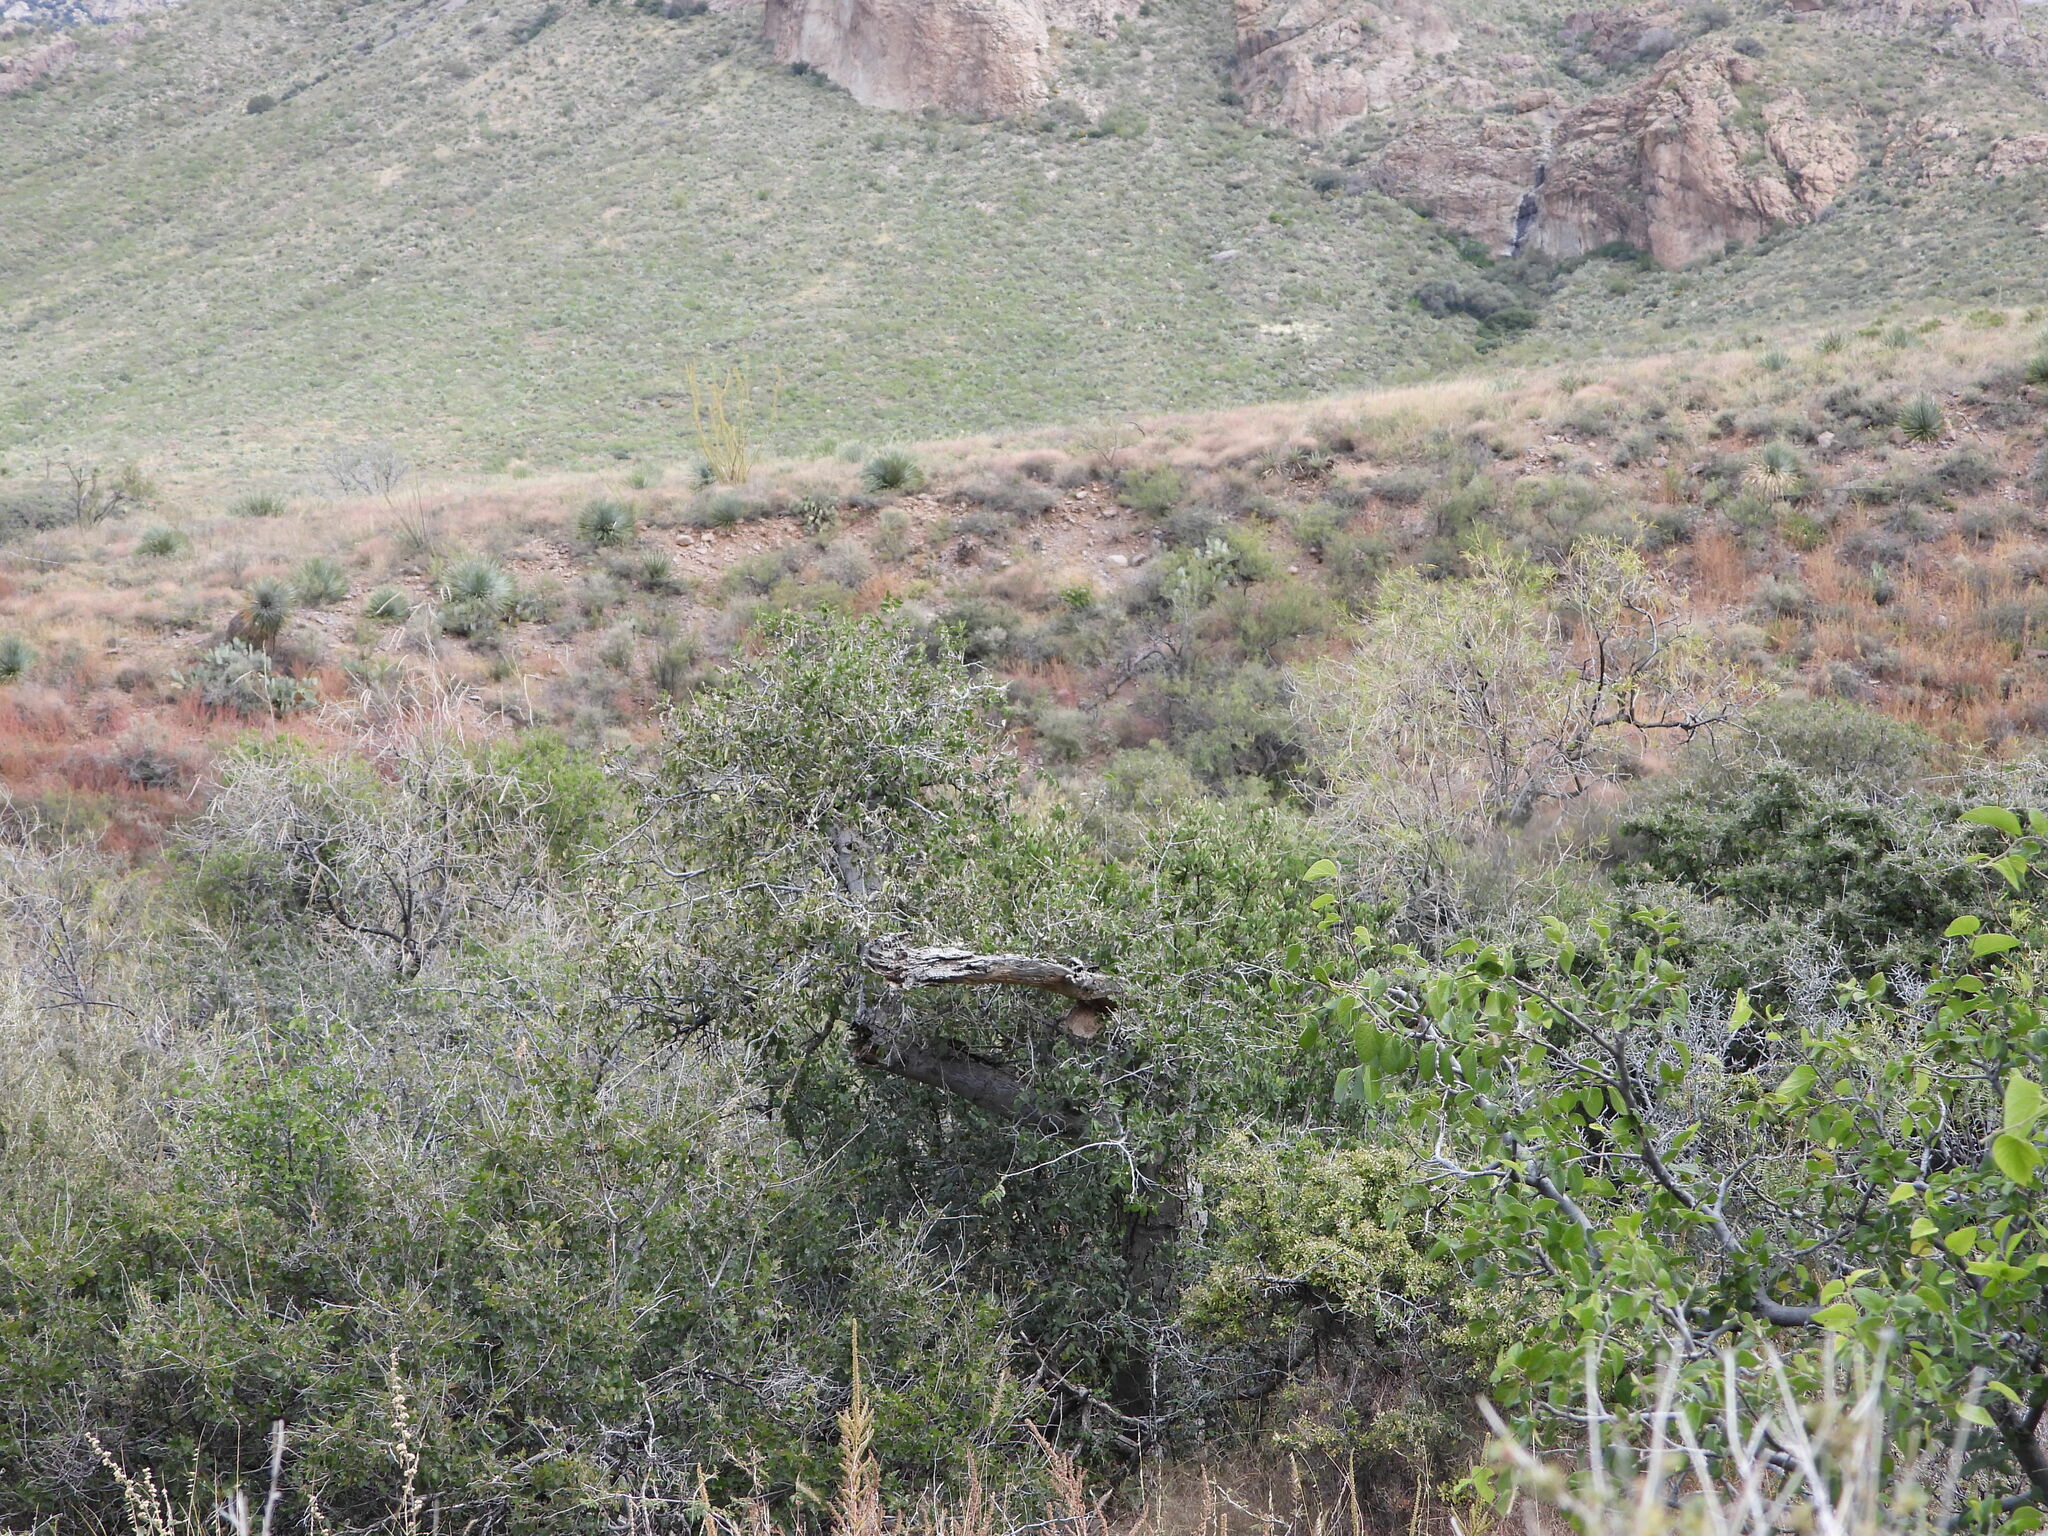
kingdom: Plantae
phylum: Tracheophyta
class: Magnoliopsida
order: Rosales
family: Cannabaceae
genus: Celtis
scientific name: Celtis reticulata
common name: Netleaf hackberry
